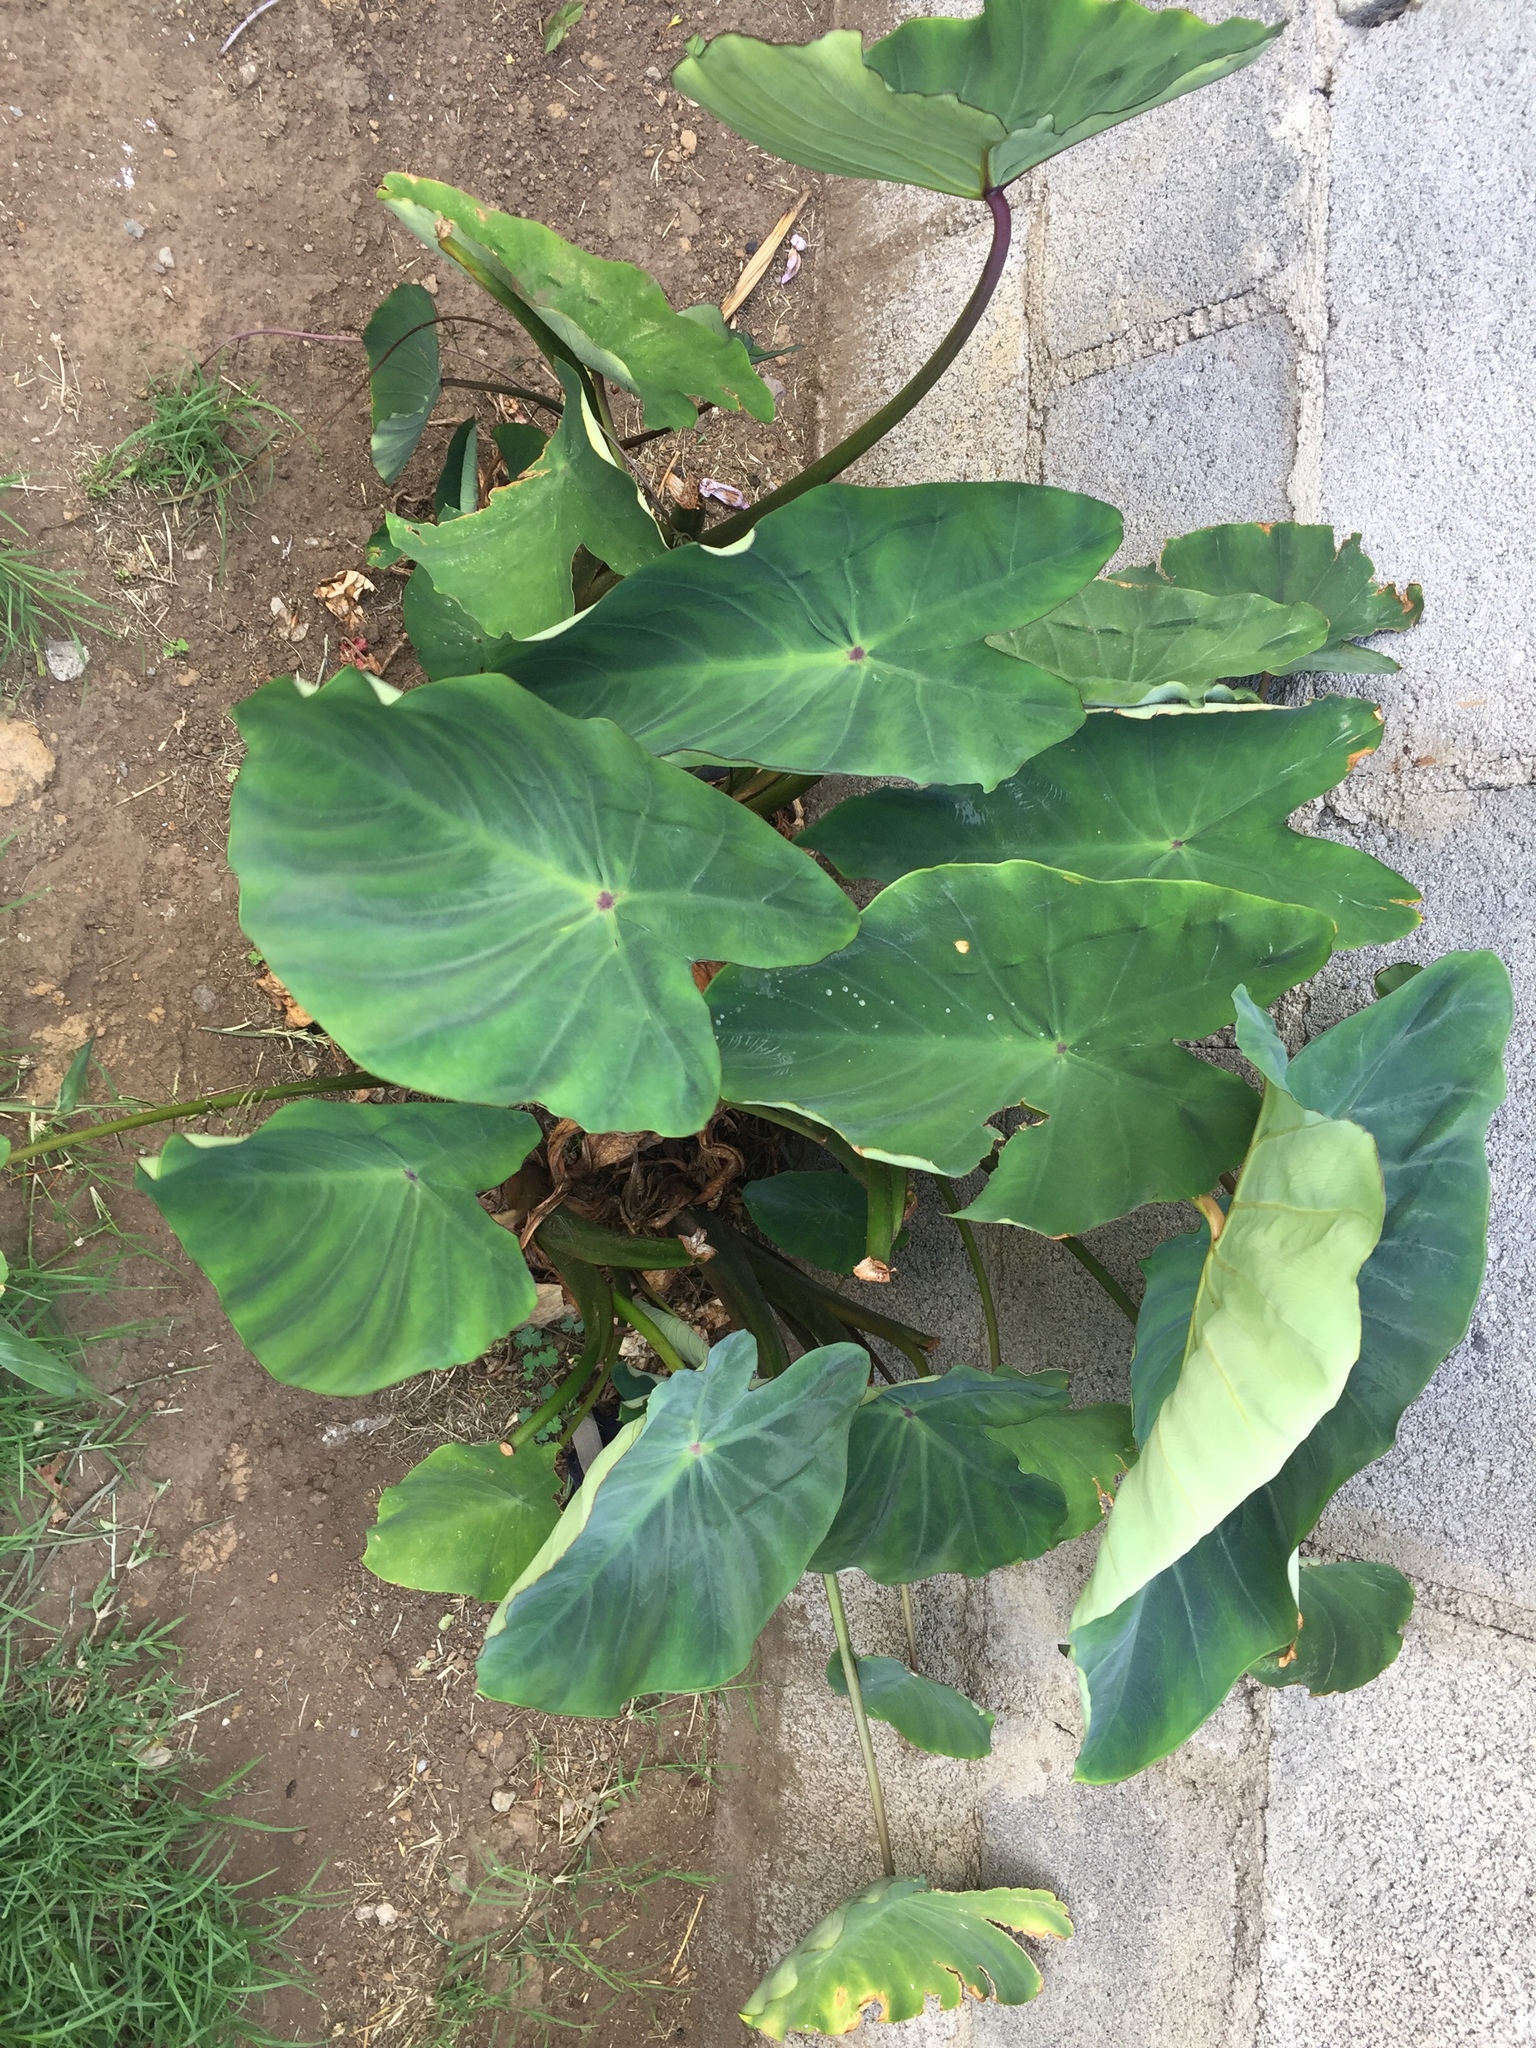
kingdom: Plantae
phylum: Tracheophyta
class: Liliopsida
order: Alismatales
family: Araceae
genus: Colocasia
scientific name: Colocasia esculenta
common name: Taro
